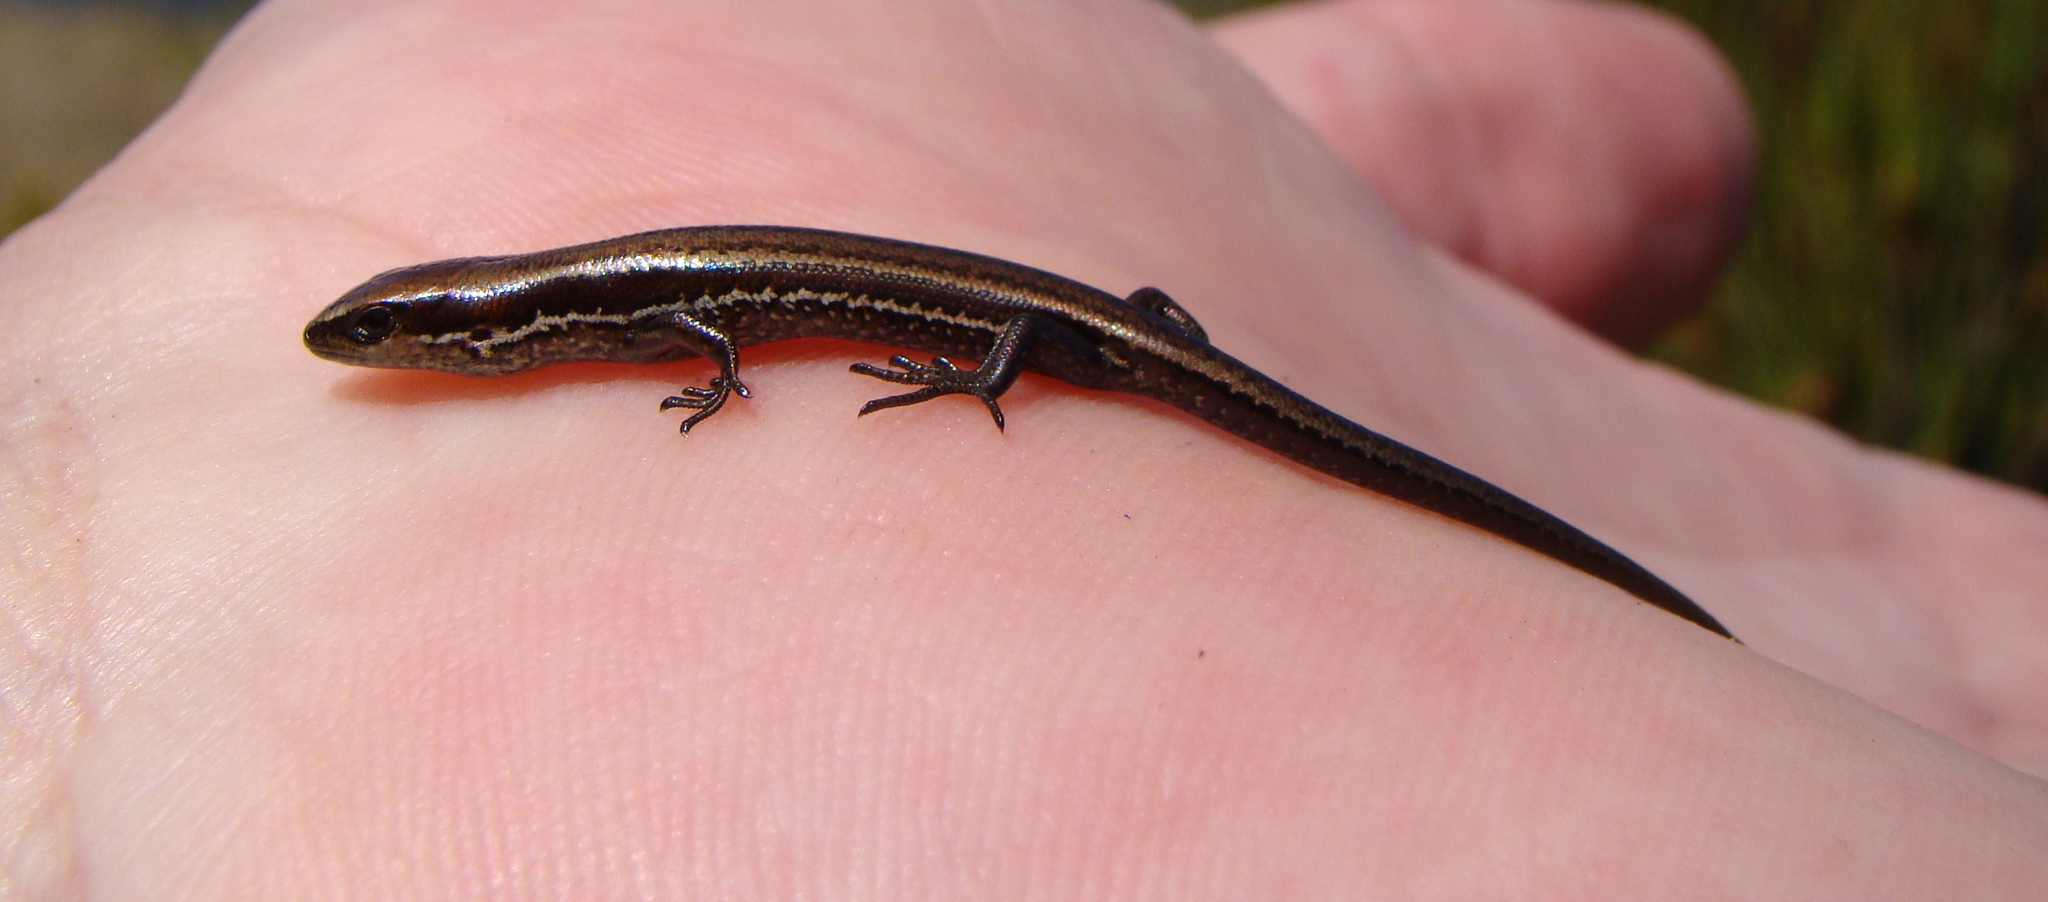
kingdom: Animalia
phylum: Chordata
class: Squamata
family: Scincidae
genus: Oligosoma
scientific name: Oligosoma notosaurus
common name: Southern skink
